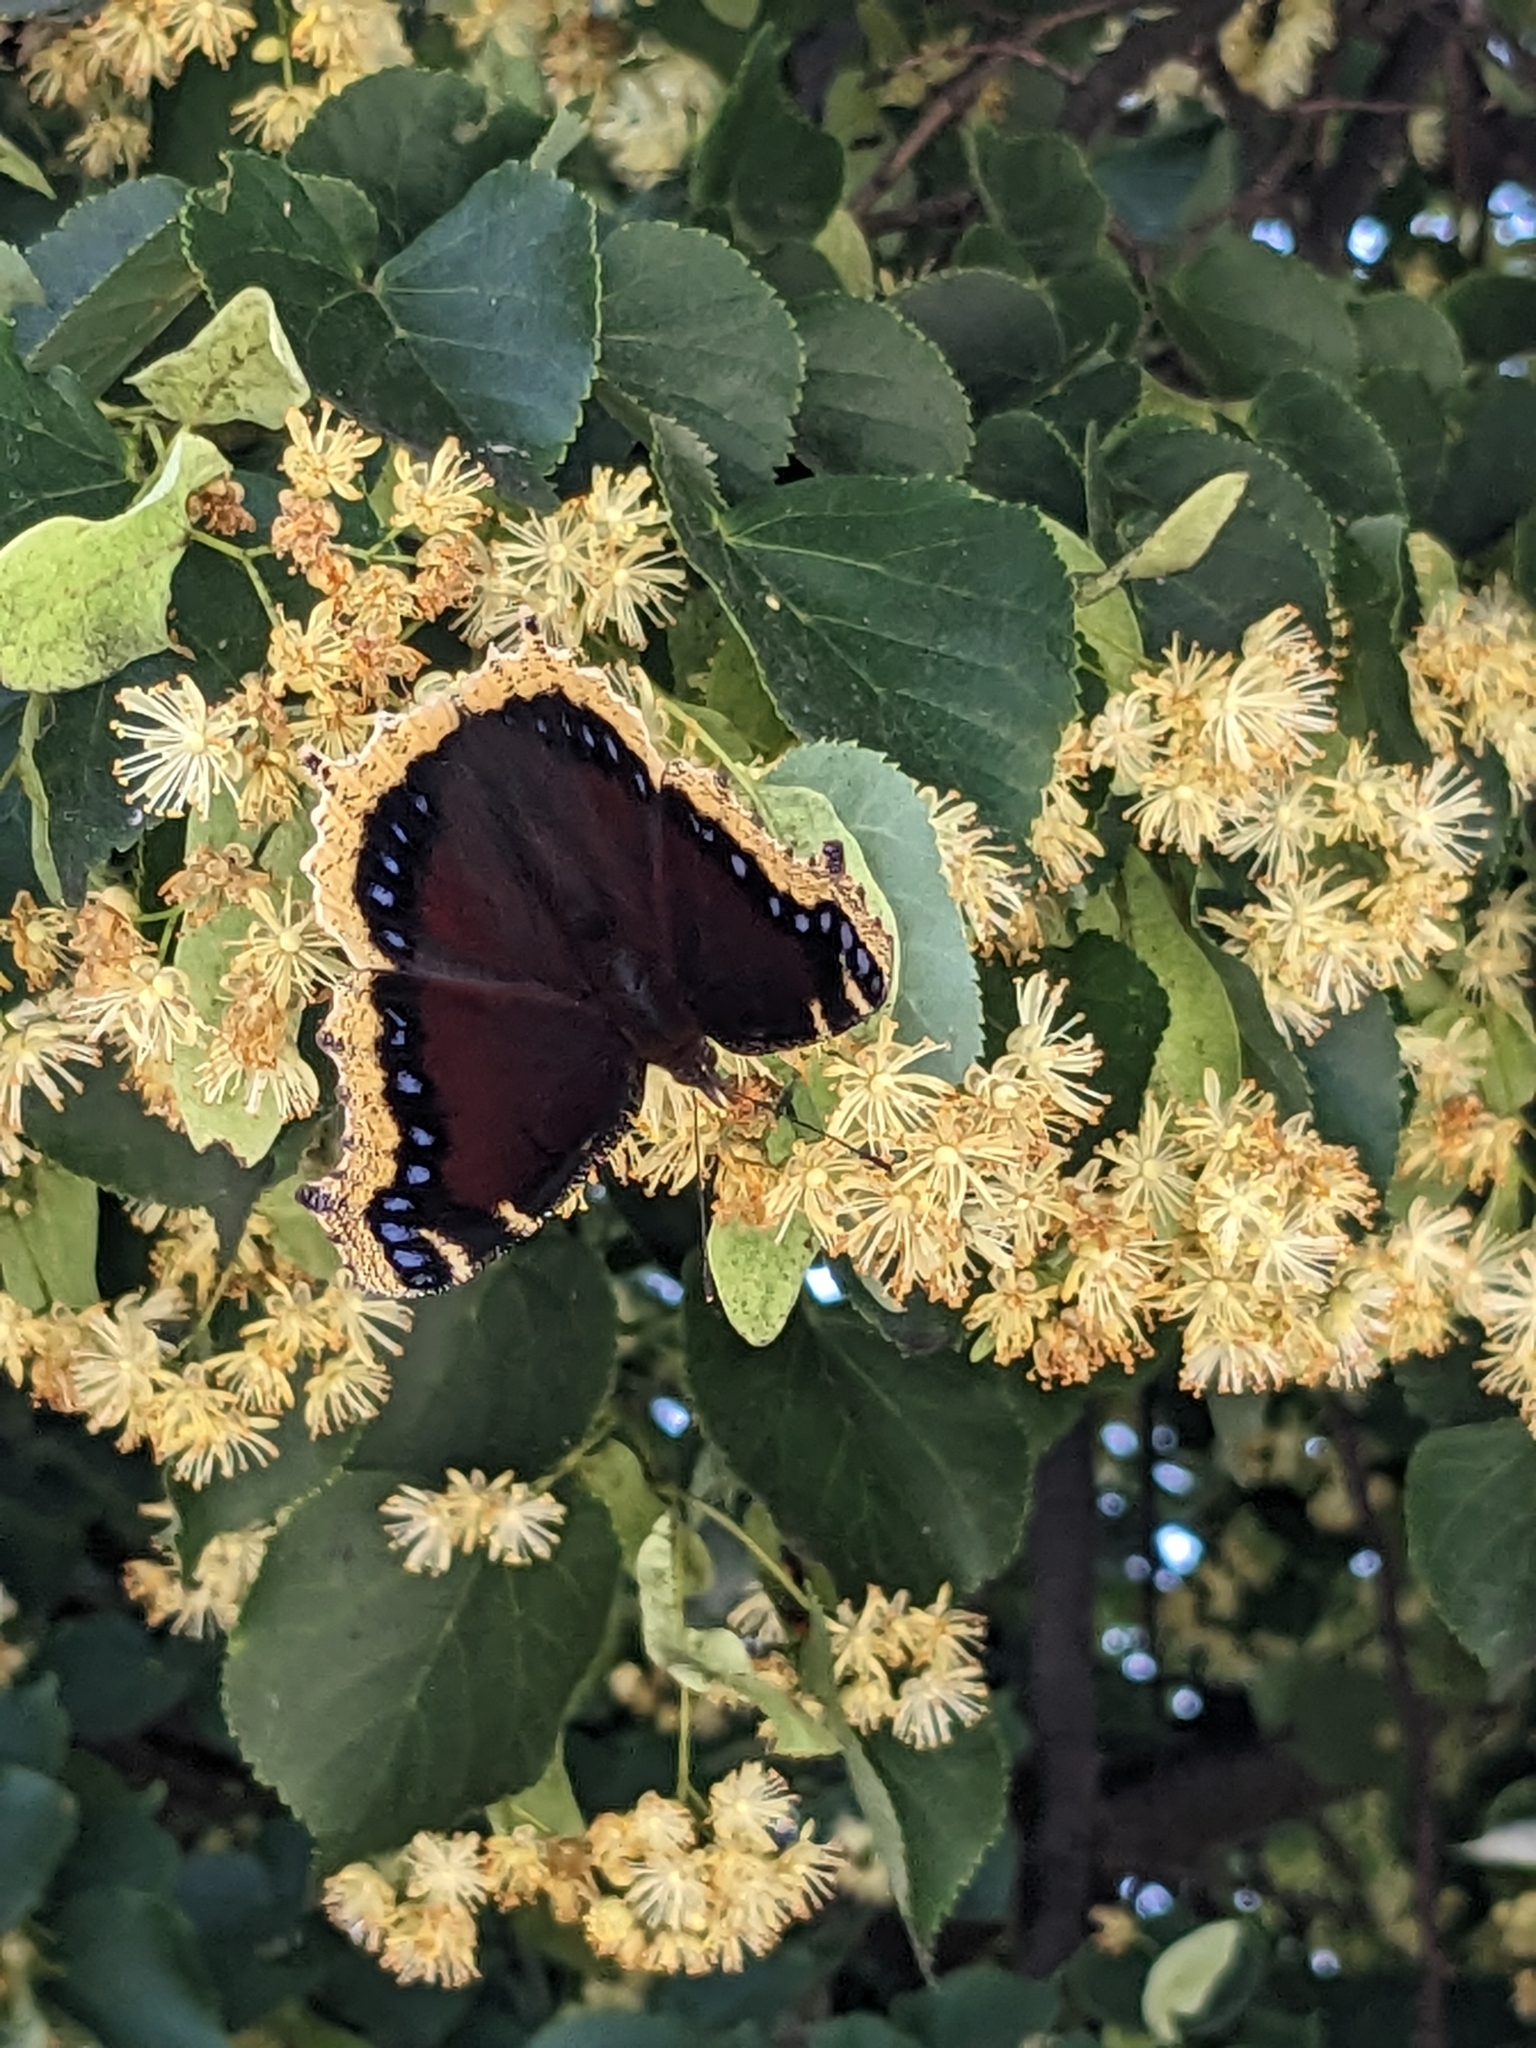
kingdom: Animalia
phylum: Arthropoda
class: Insecta
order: Lepidoptera
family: Nymphalidae
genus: Nymphalis
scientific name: Nymphalis antiopa
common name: Camberwell beauty
